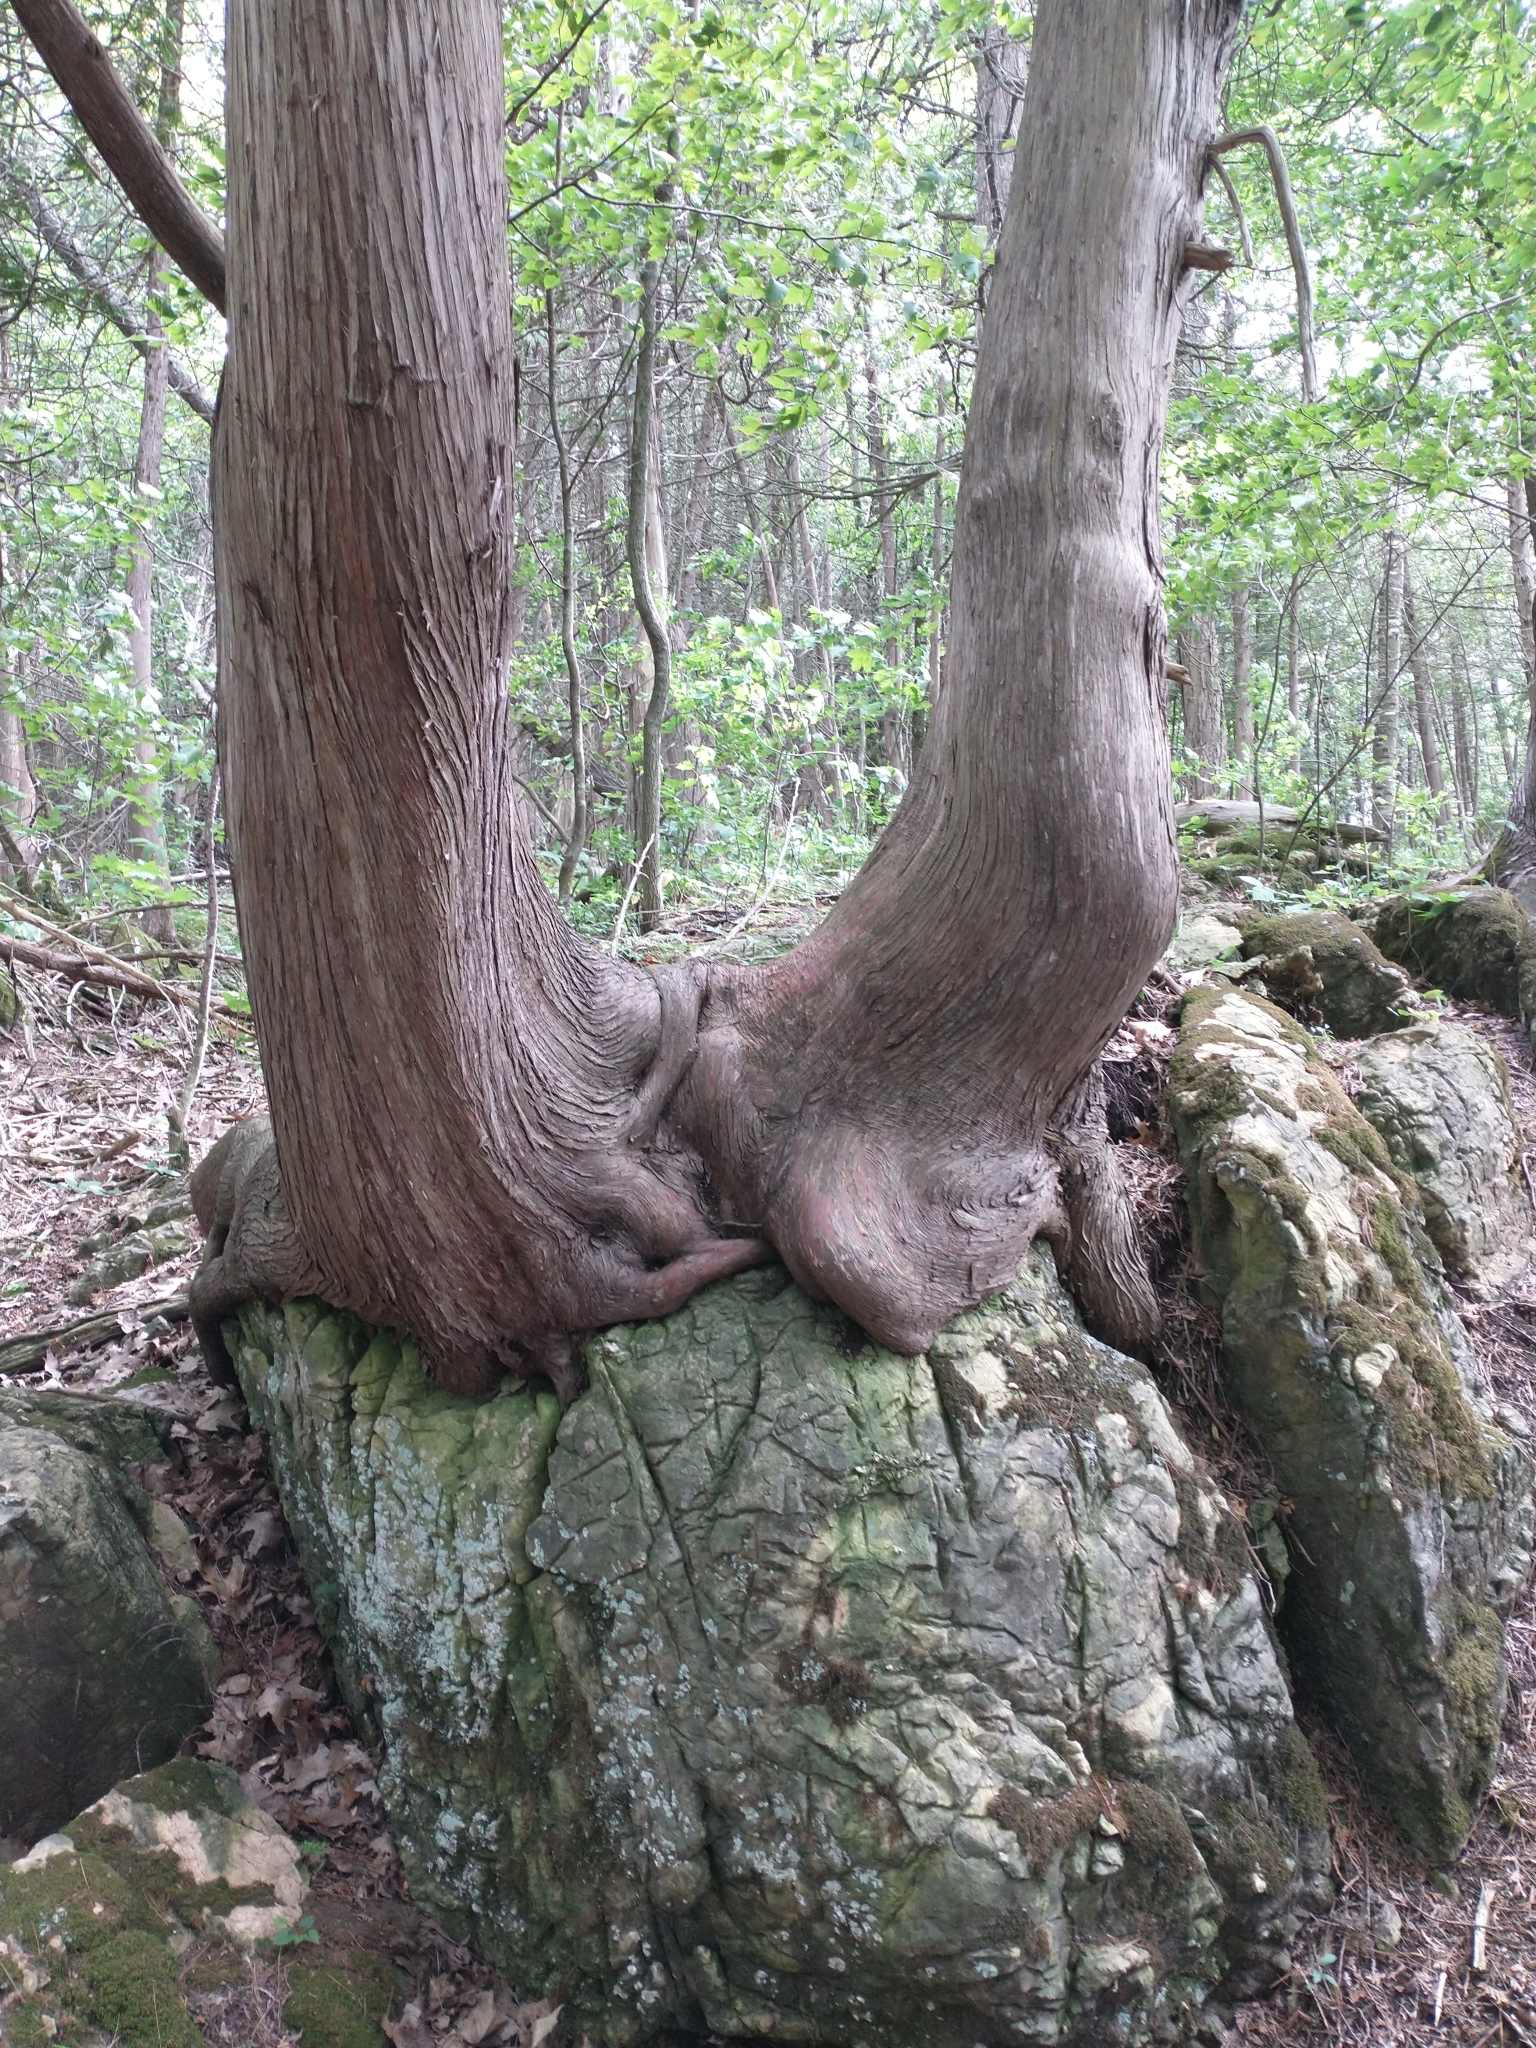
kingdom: Plantae
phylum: Tracheophyta
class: Pinopsida
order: Pinales
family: Cupressaceae
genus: Thuja
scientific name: Thuja occidentalis
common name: Northern white-cedar
